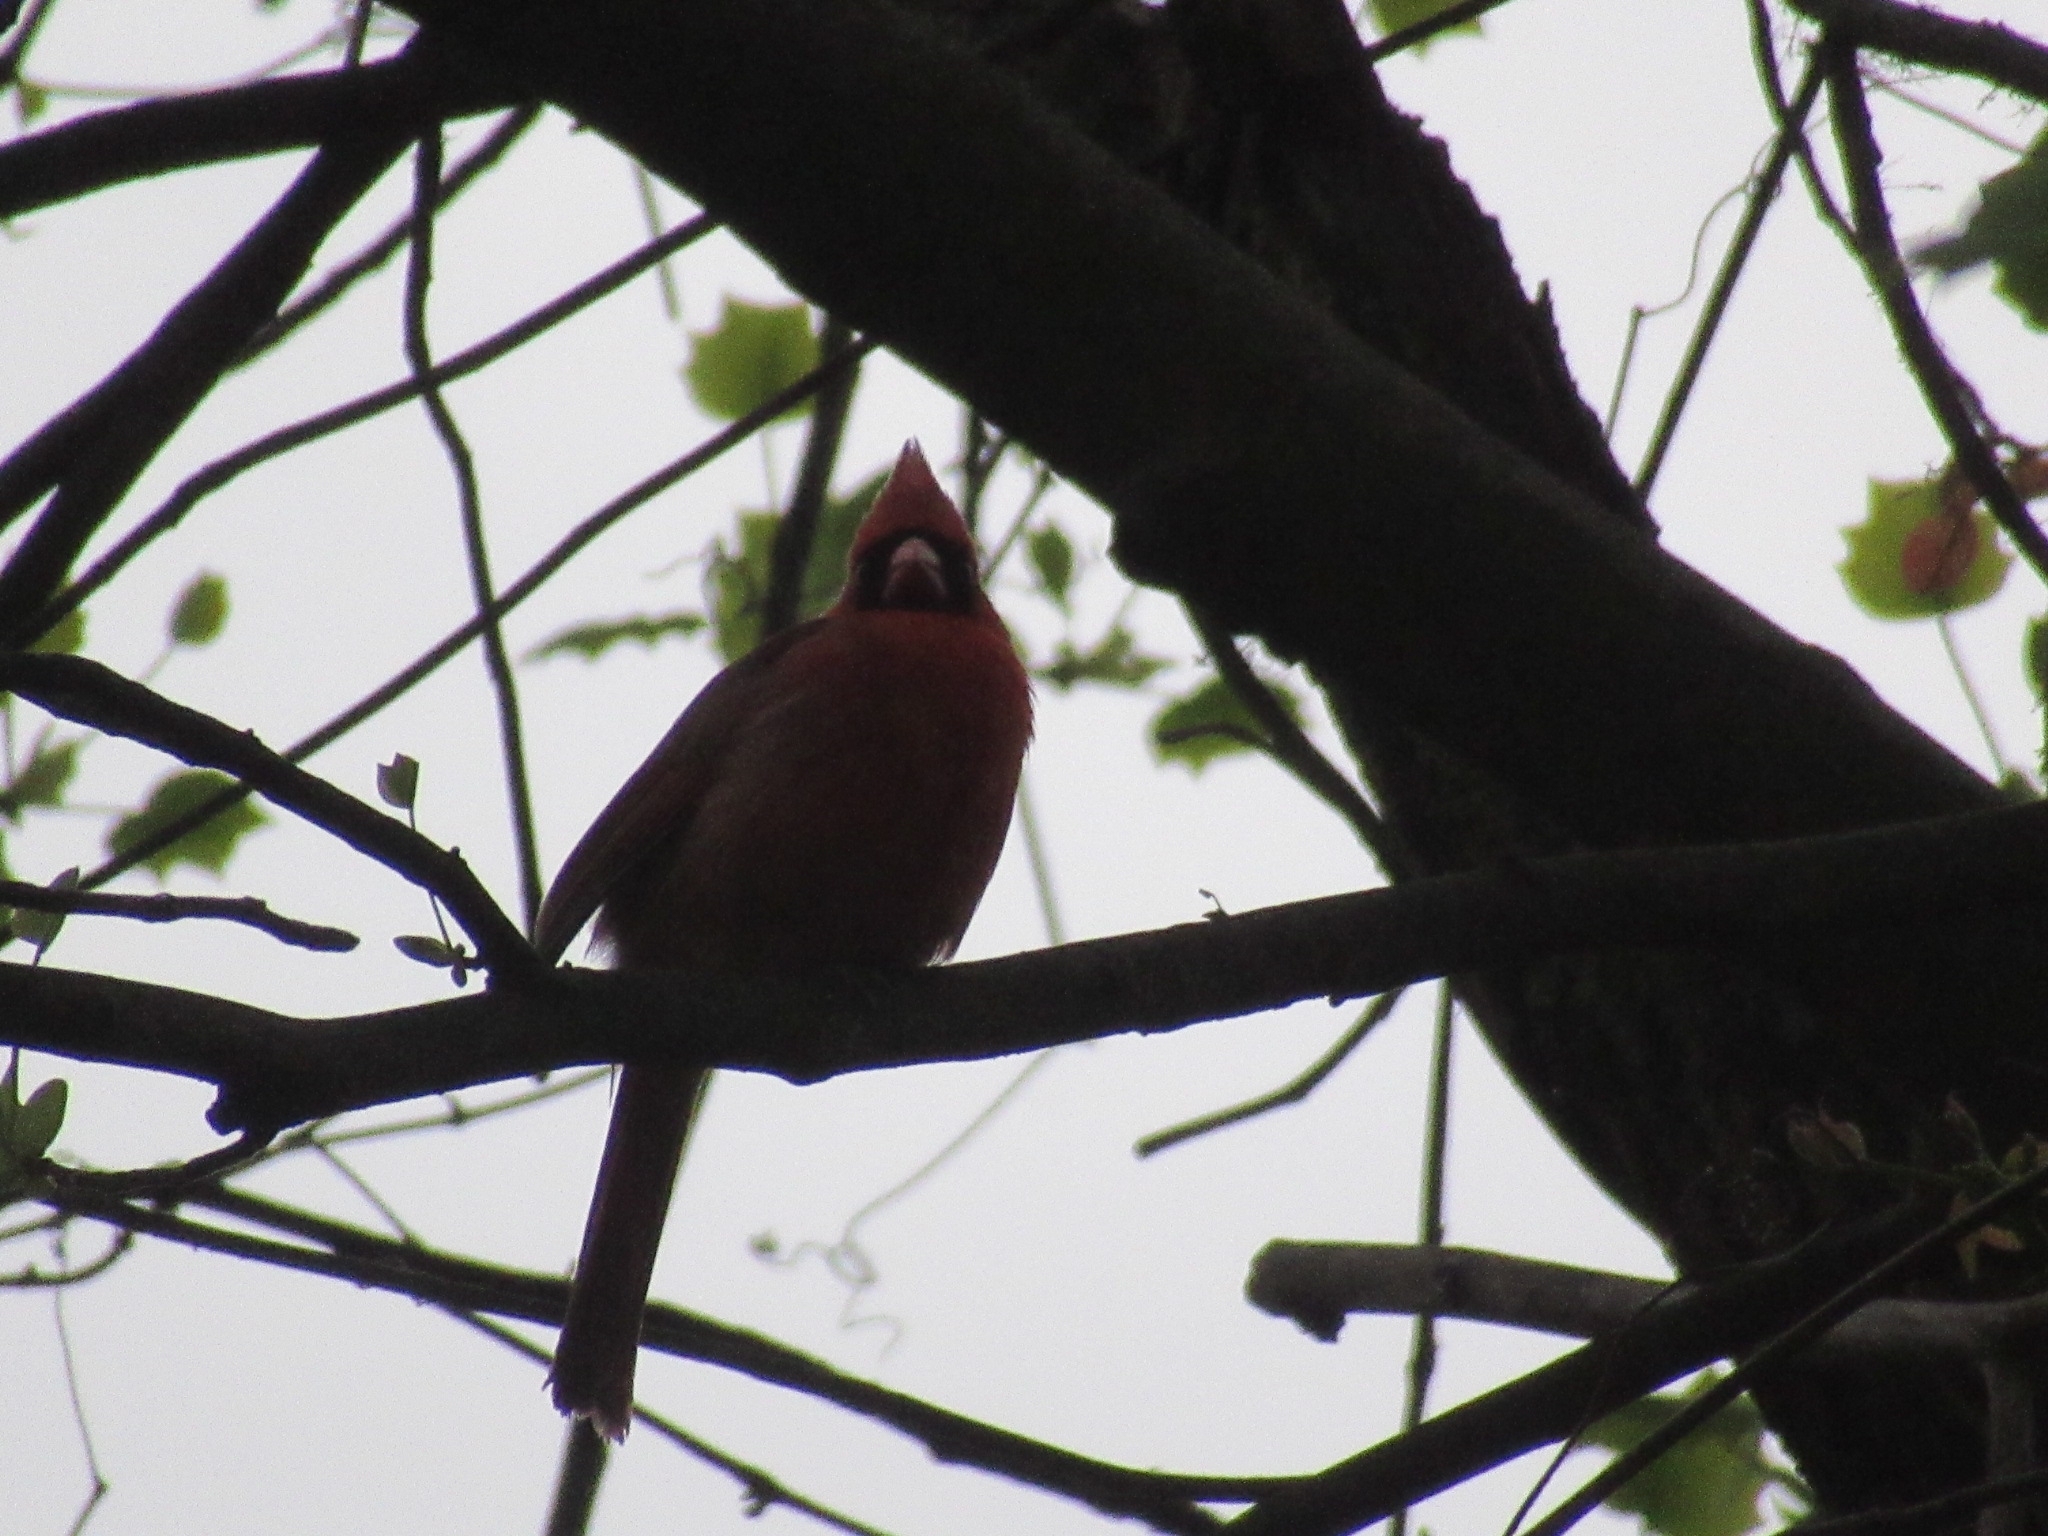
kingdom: Animalia
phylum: Chordata
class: Aves
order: Passeriformes
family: Cardinalidae
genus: Cardinalis
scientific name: Cardinalis cardinalis
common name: Northern cardinal
